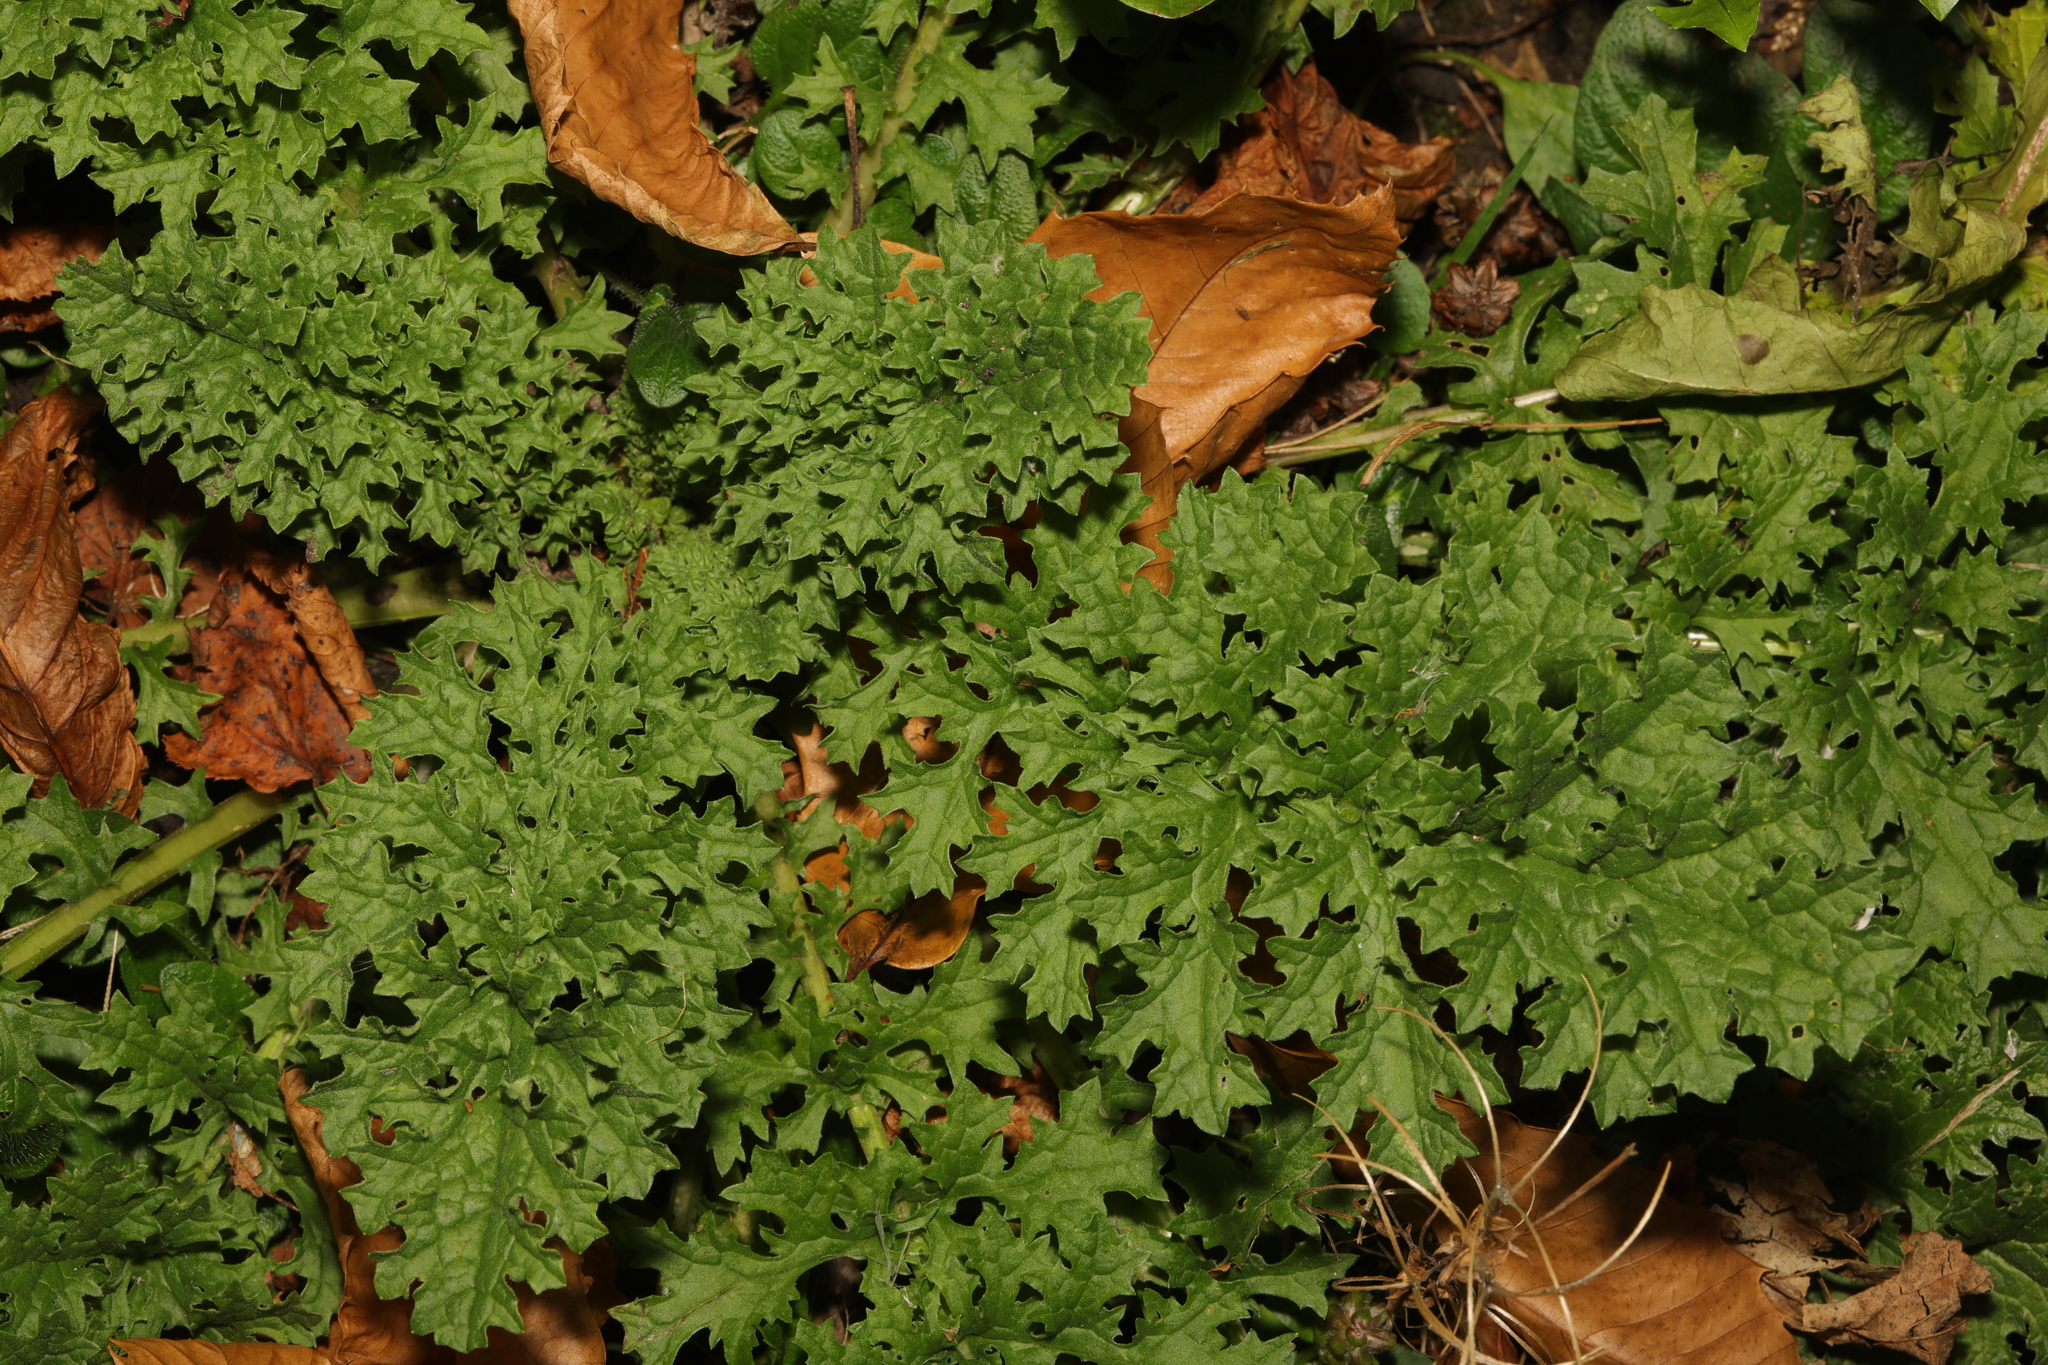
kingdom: Plantae
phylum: Tracheophyta
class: Magnoliopsida
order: Asterales
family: Asteraceae
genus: Jacobaea
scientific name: Jacobaea vulgaris
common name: Stinking willie
